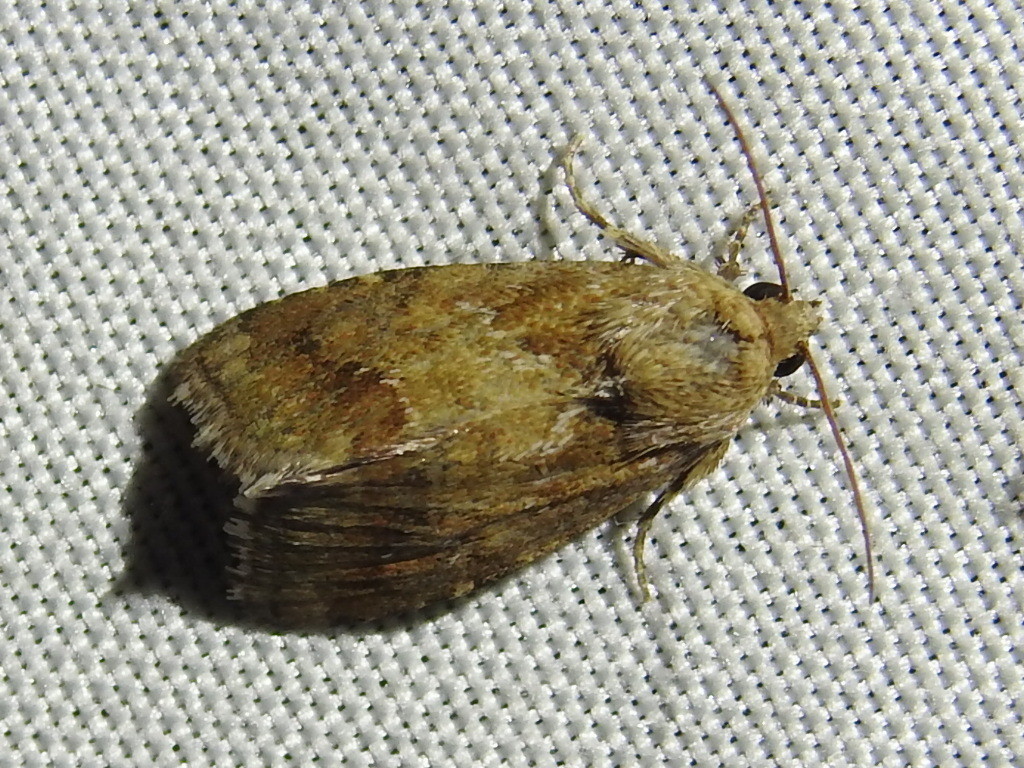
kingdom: Animalia
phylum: Arthropoda
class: Insecta
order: Lepidoptera
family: Noctuidae
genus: Schinia
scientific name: Schinia sordida
